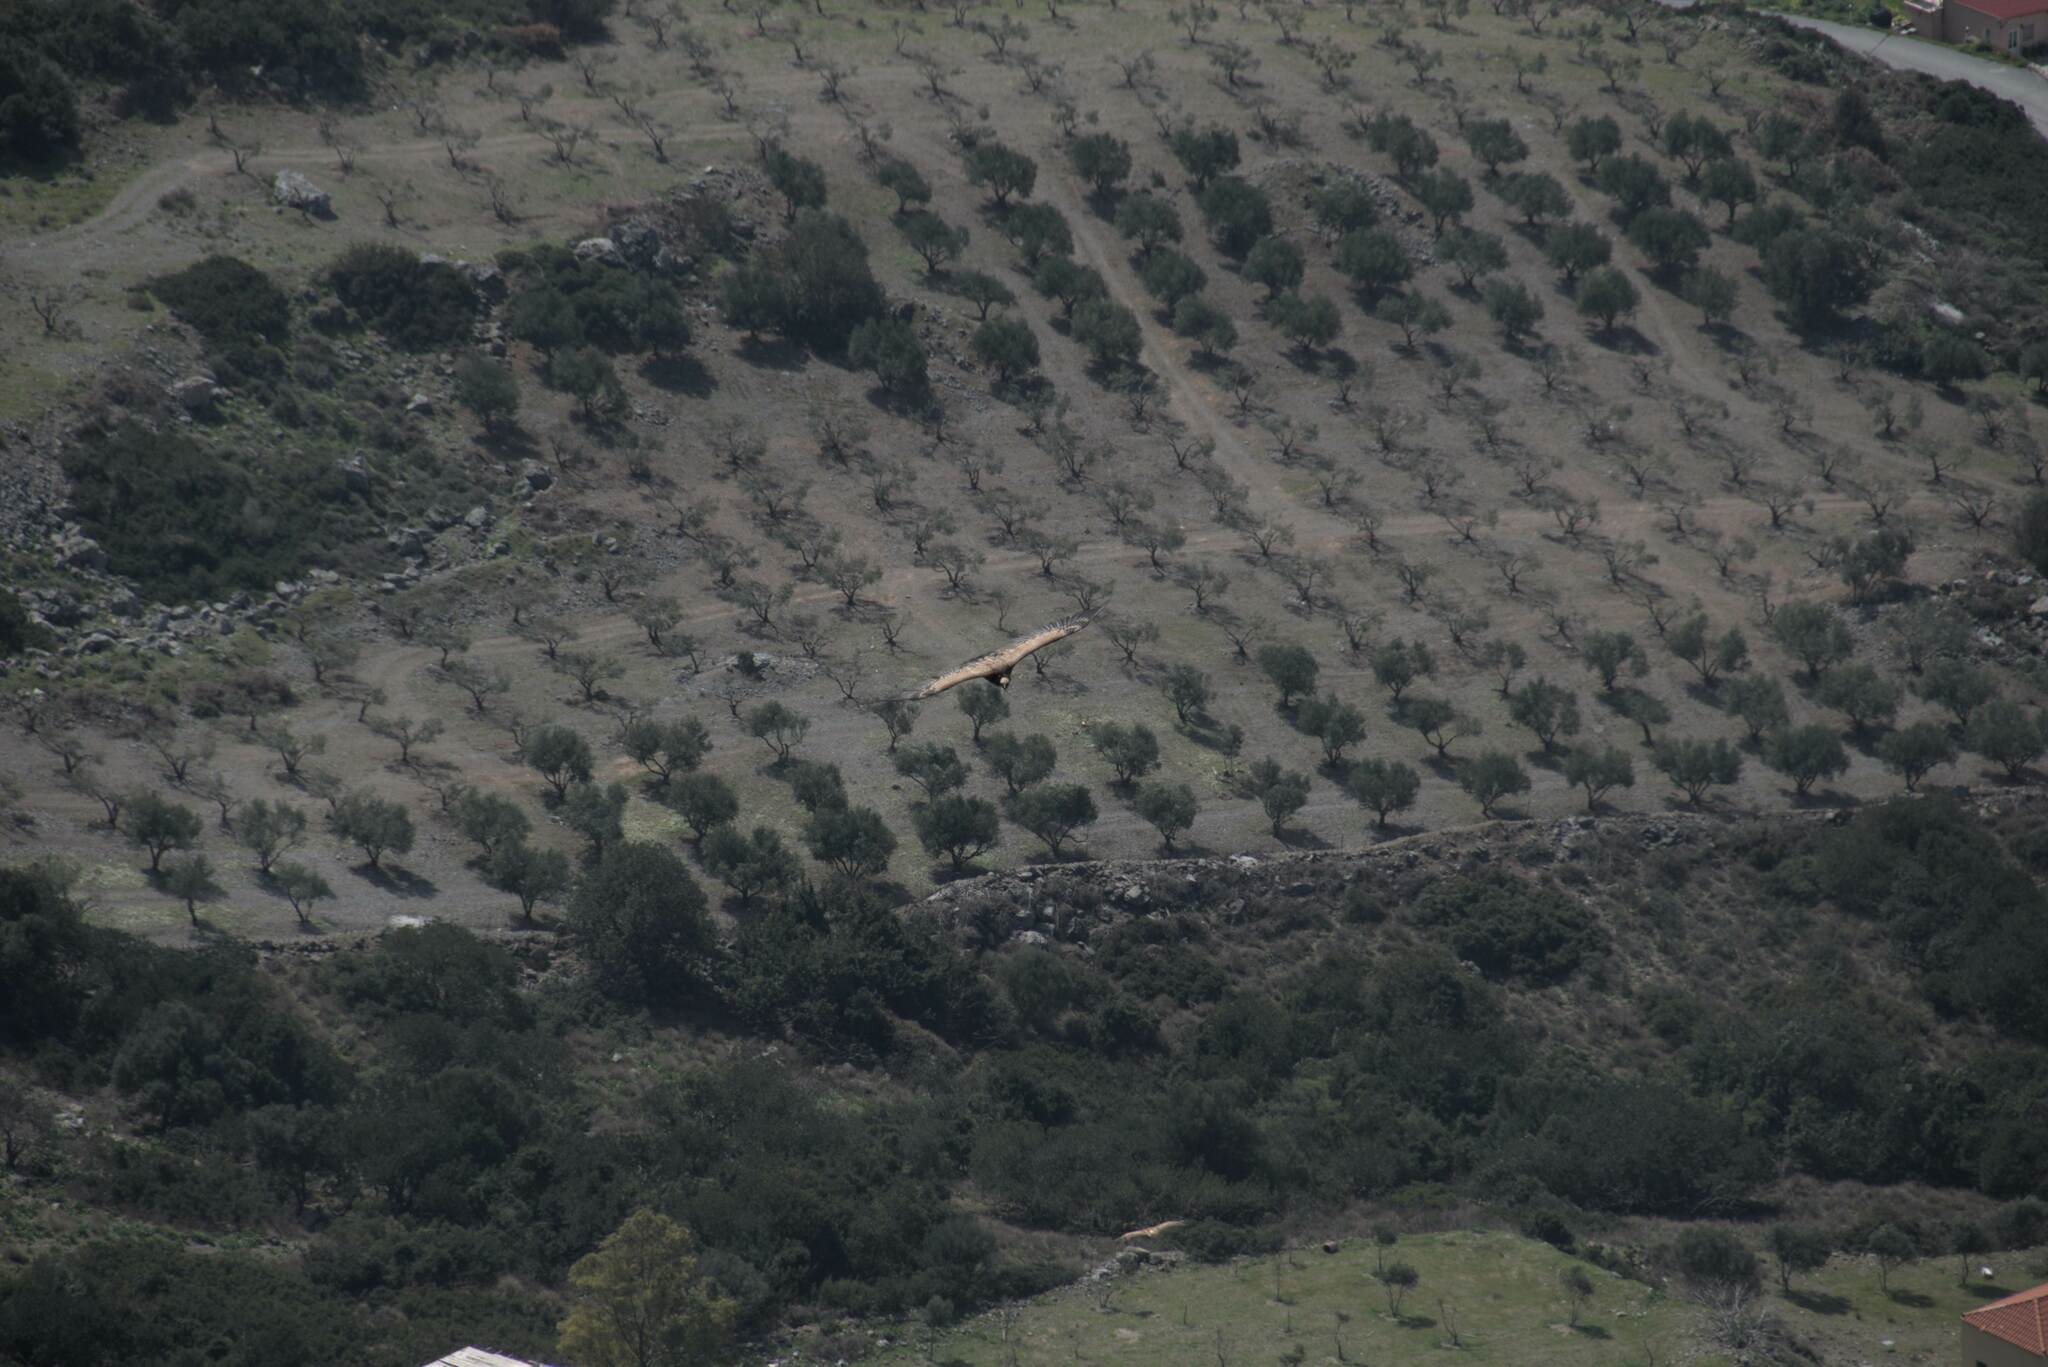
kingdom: Animalia
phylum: Chordata
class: Aves
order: Accipitriformes
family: Accipitridae
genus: Gyps
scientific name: Gyps fulvus
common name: Griffon vulture
